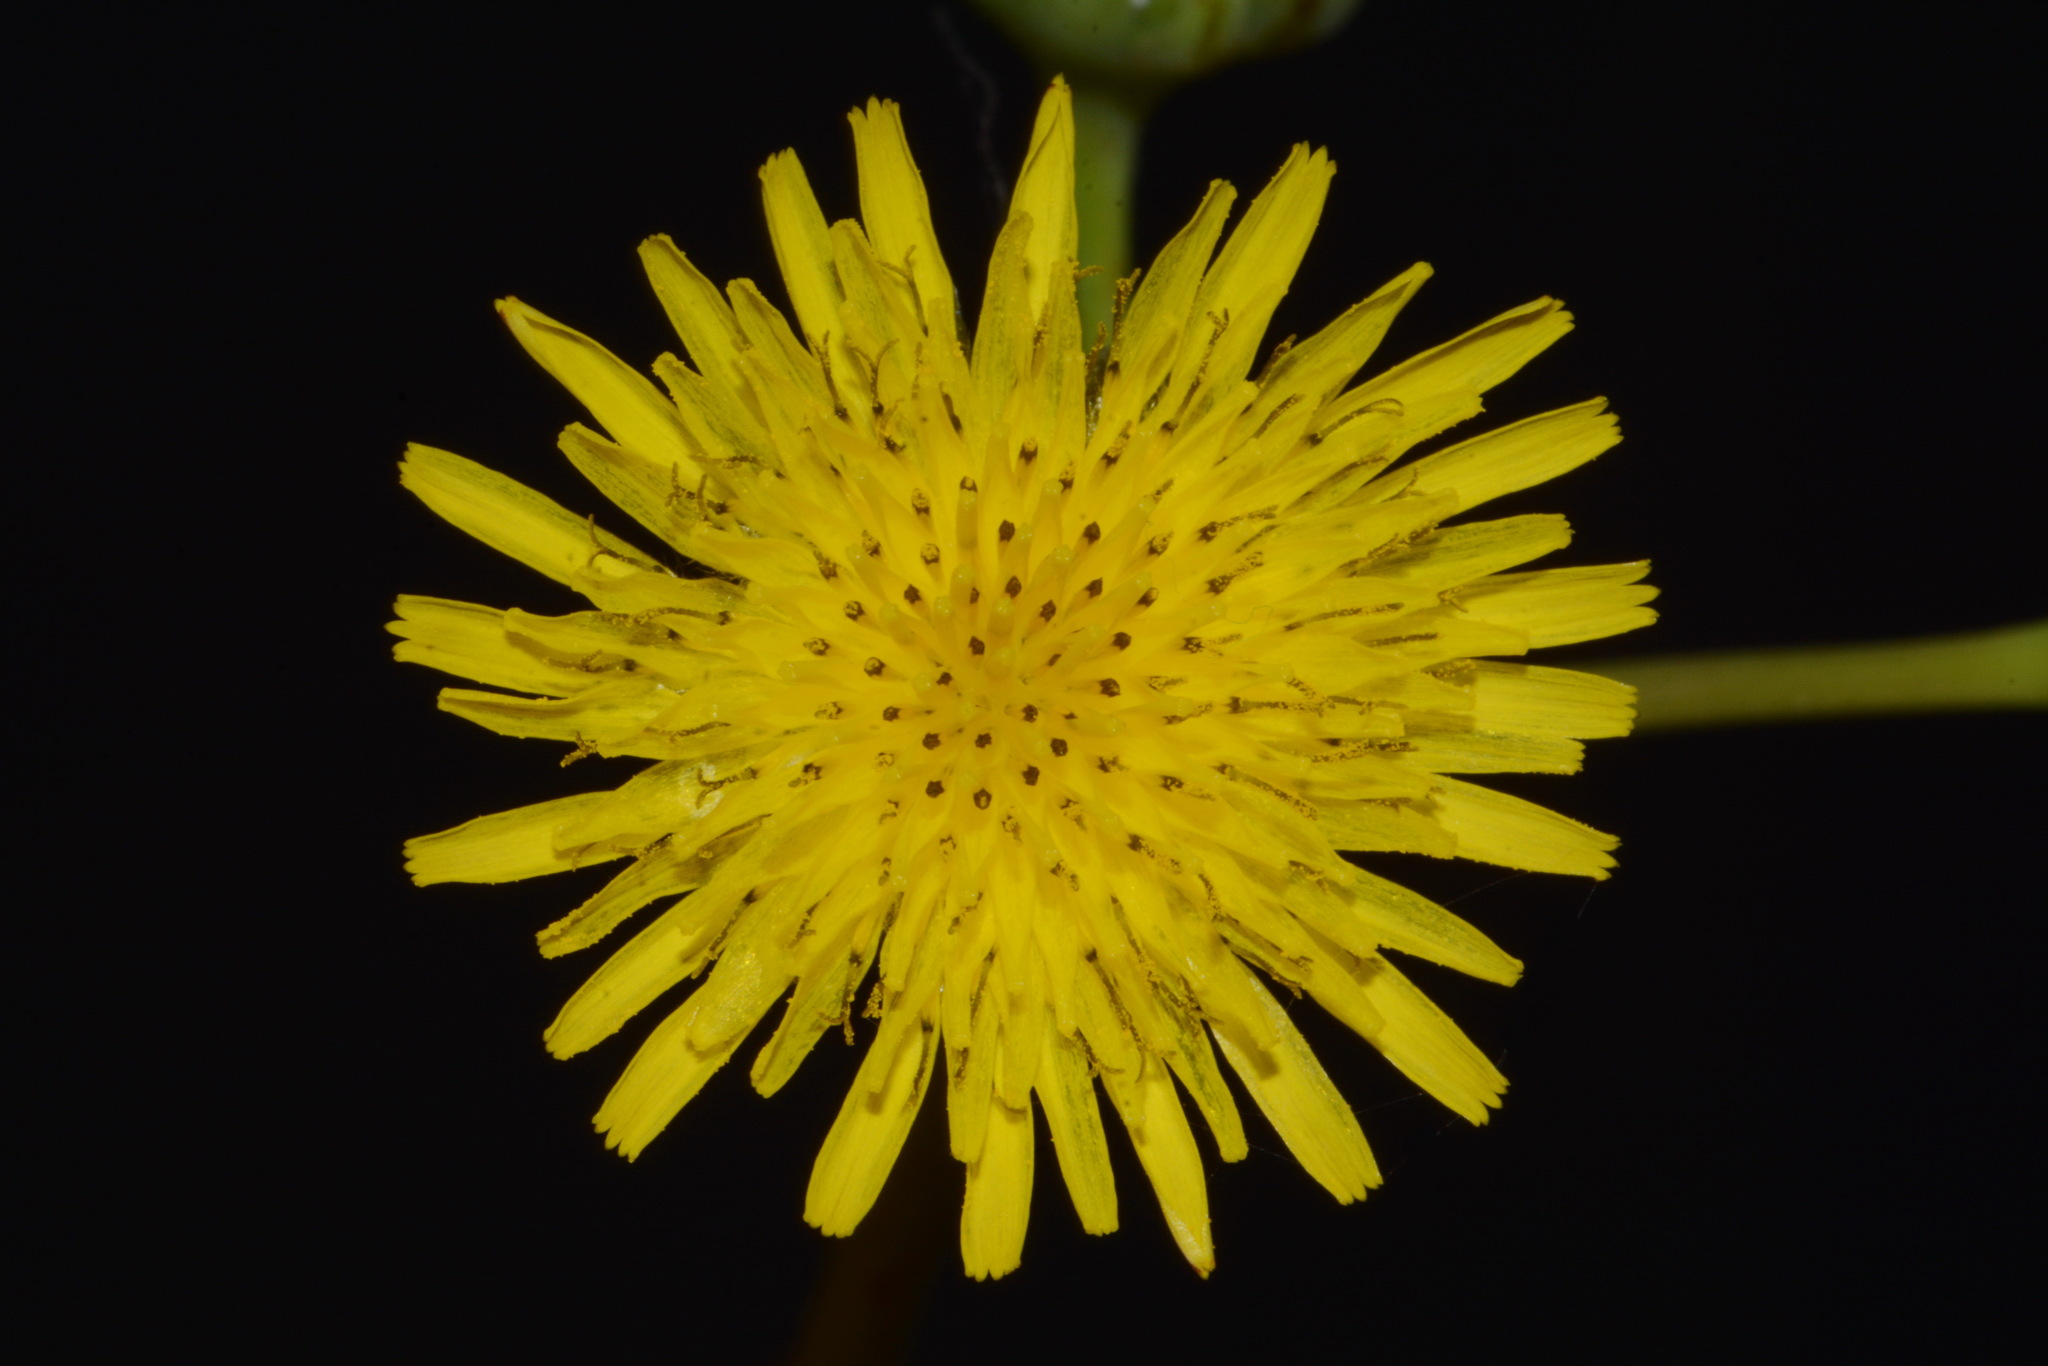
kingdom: Plantae
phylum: Tracheophyta
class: Magnoliopsida
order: Asterales
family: Asteraceae
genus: Sonchus
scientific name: Sonchus oleraceus
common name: Common sowthistle
